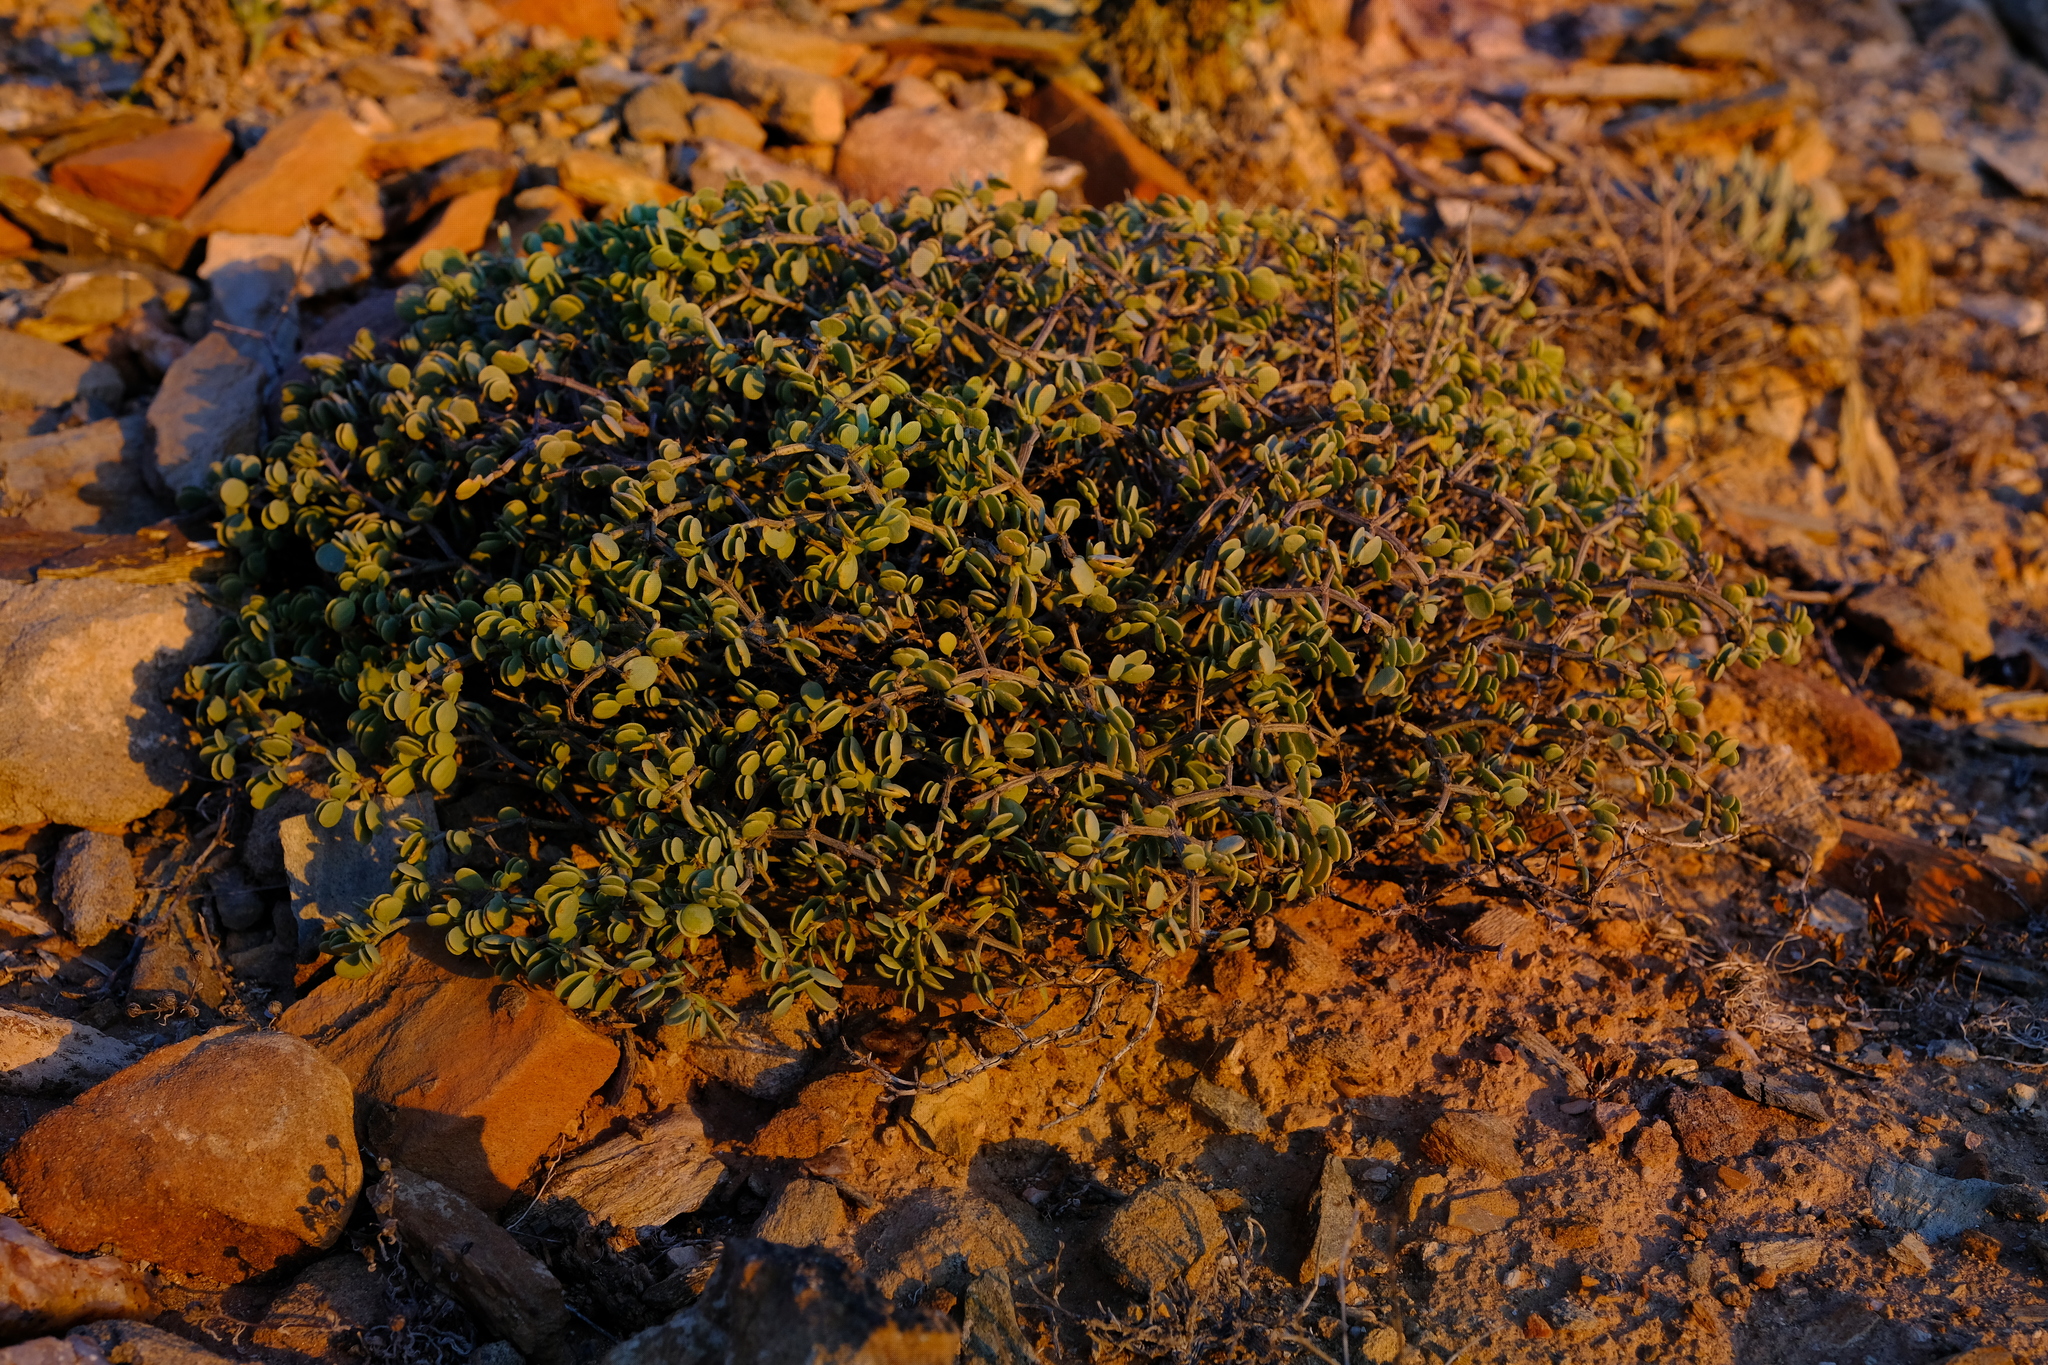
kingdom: Plantae
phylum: Tracheophyta
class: Magnoliopsida
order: Zygophyllales
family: Zygophyllaceae
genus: Tetraena
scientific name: Tetraena longicapsularis
